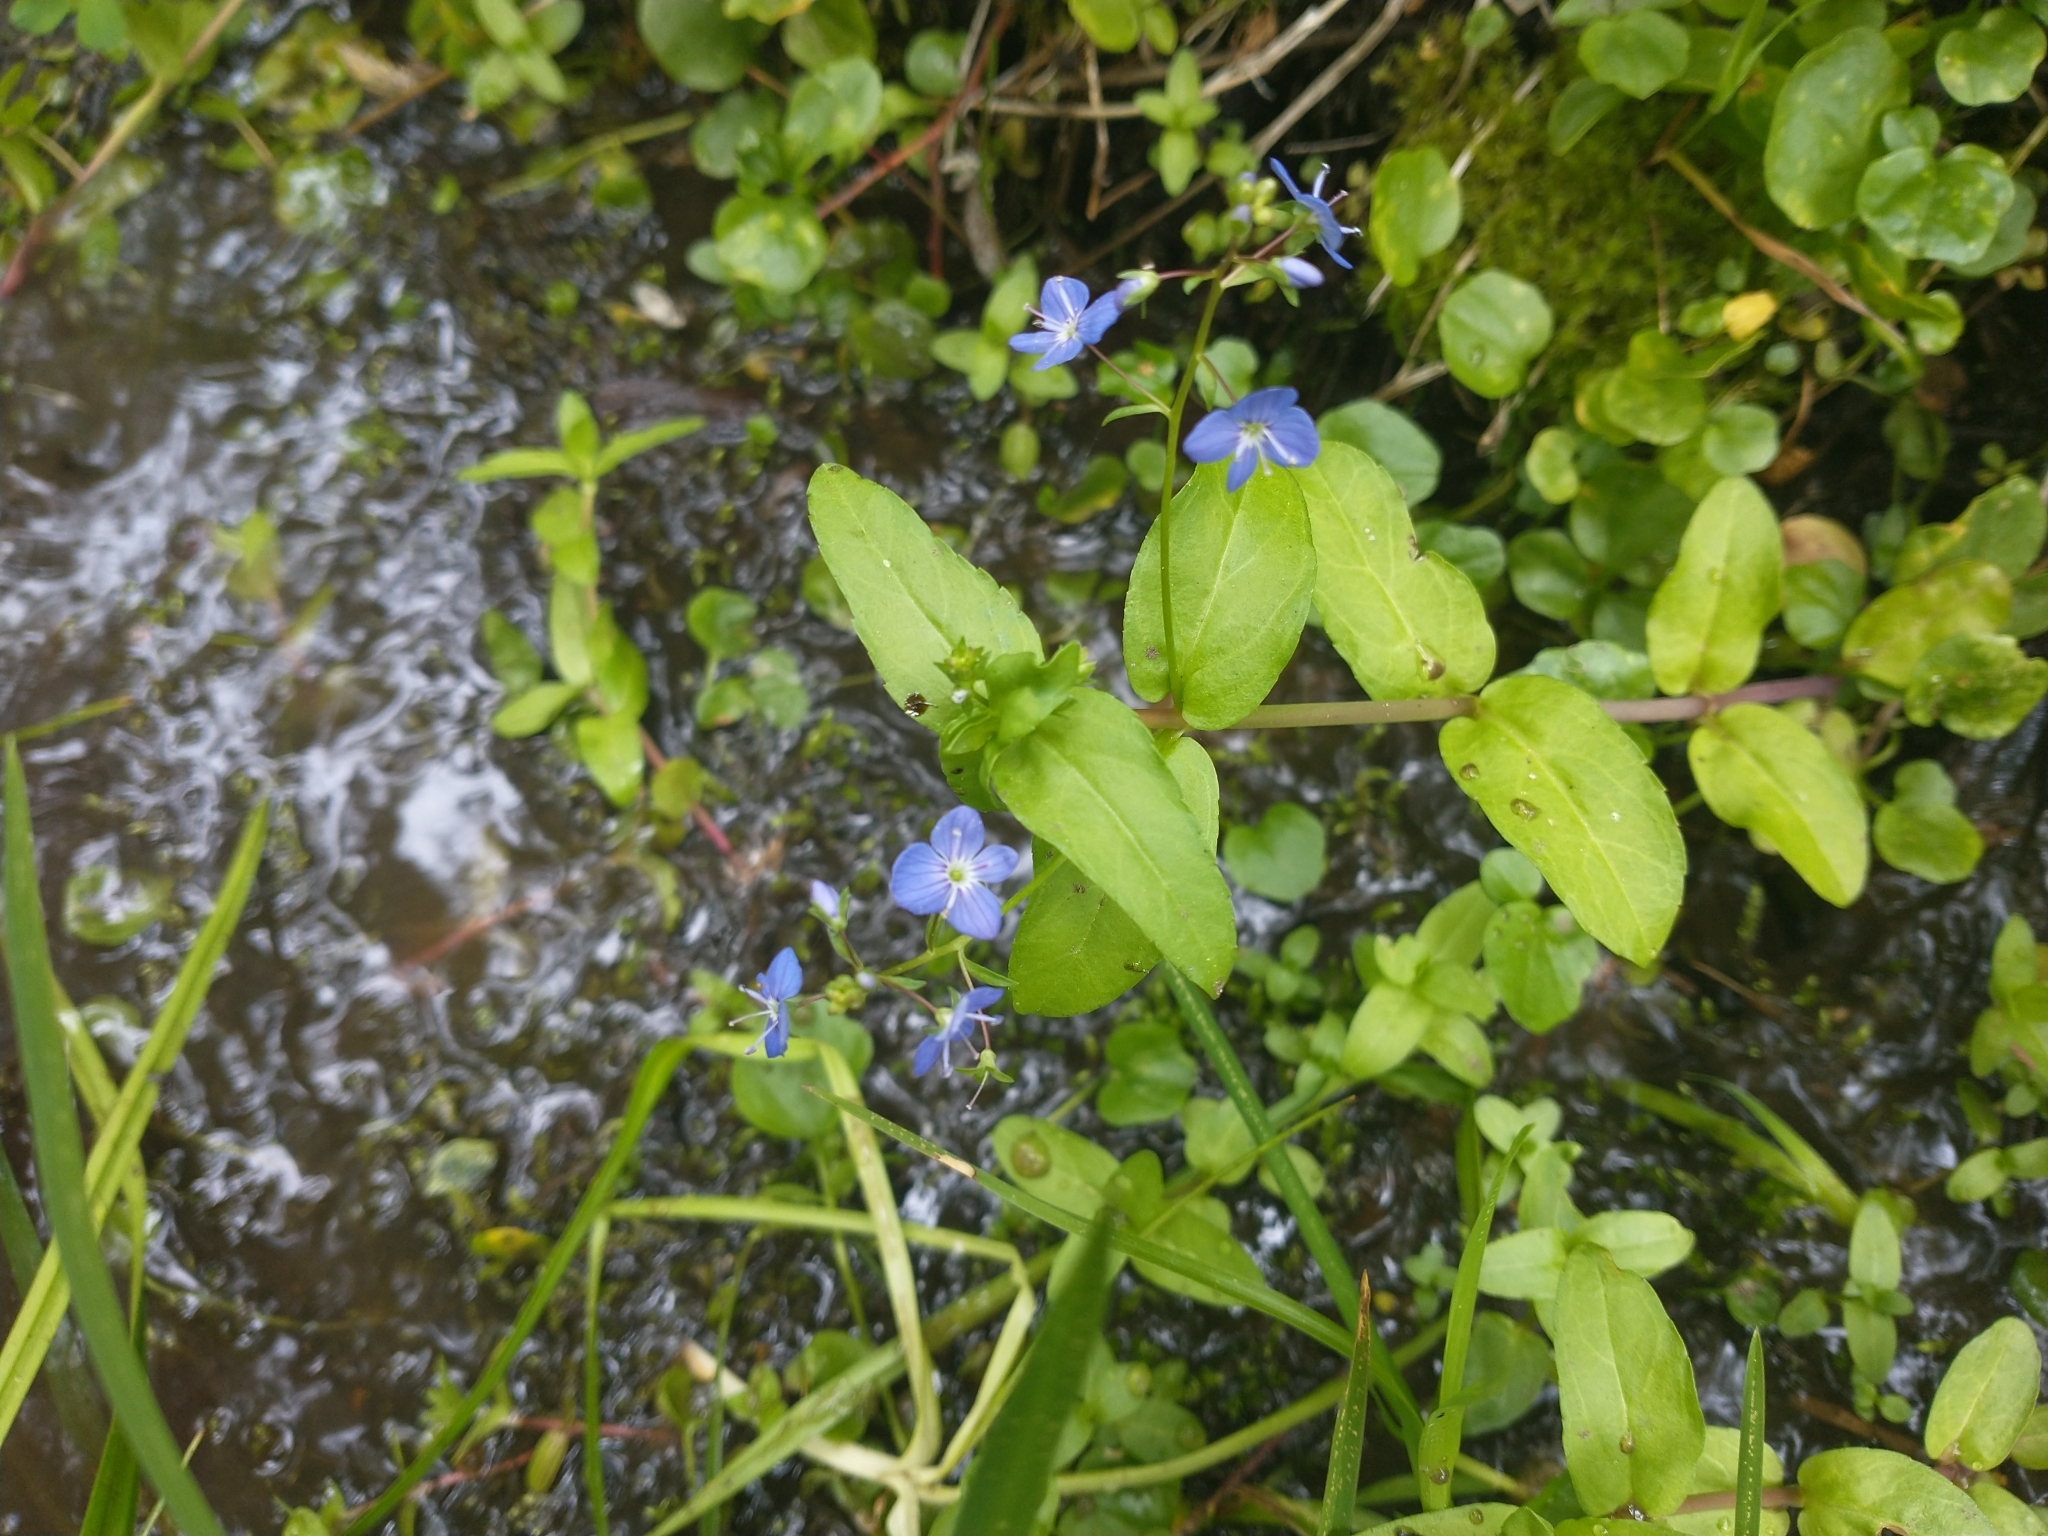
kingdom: Plantae
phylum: Tracheophyta
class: Magnoliopsida
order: Lamiales
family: Plantaginaceae
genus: Veronica
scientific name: Veronica americana
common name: American brooklime
